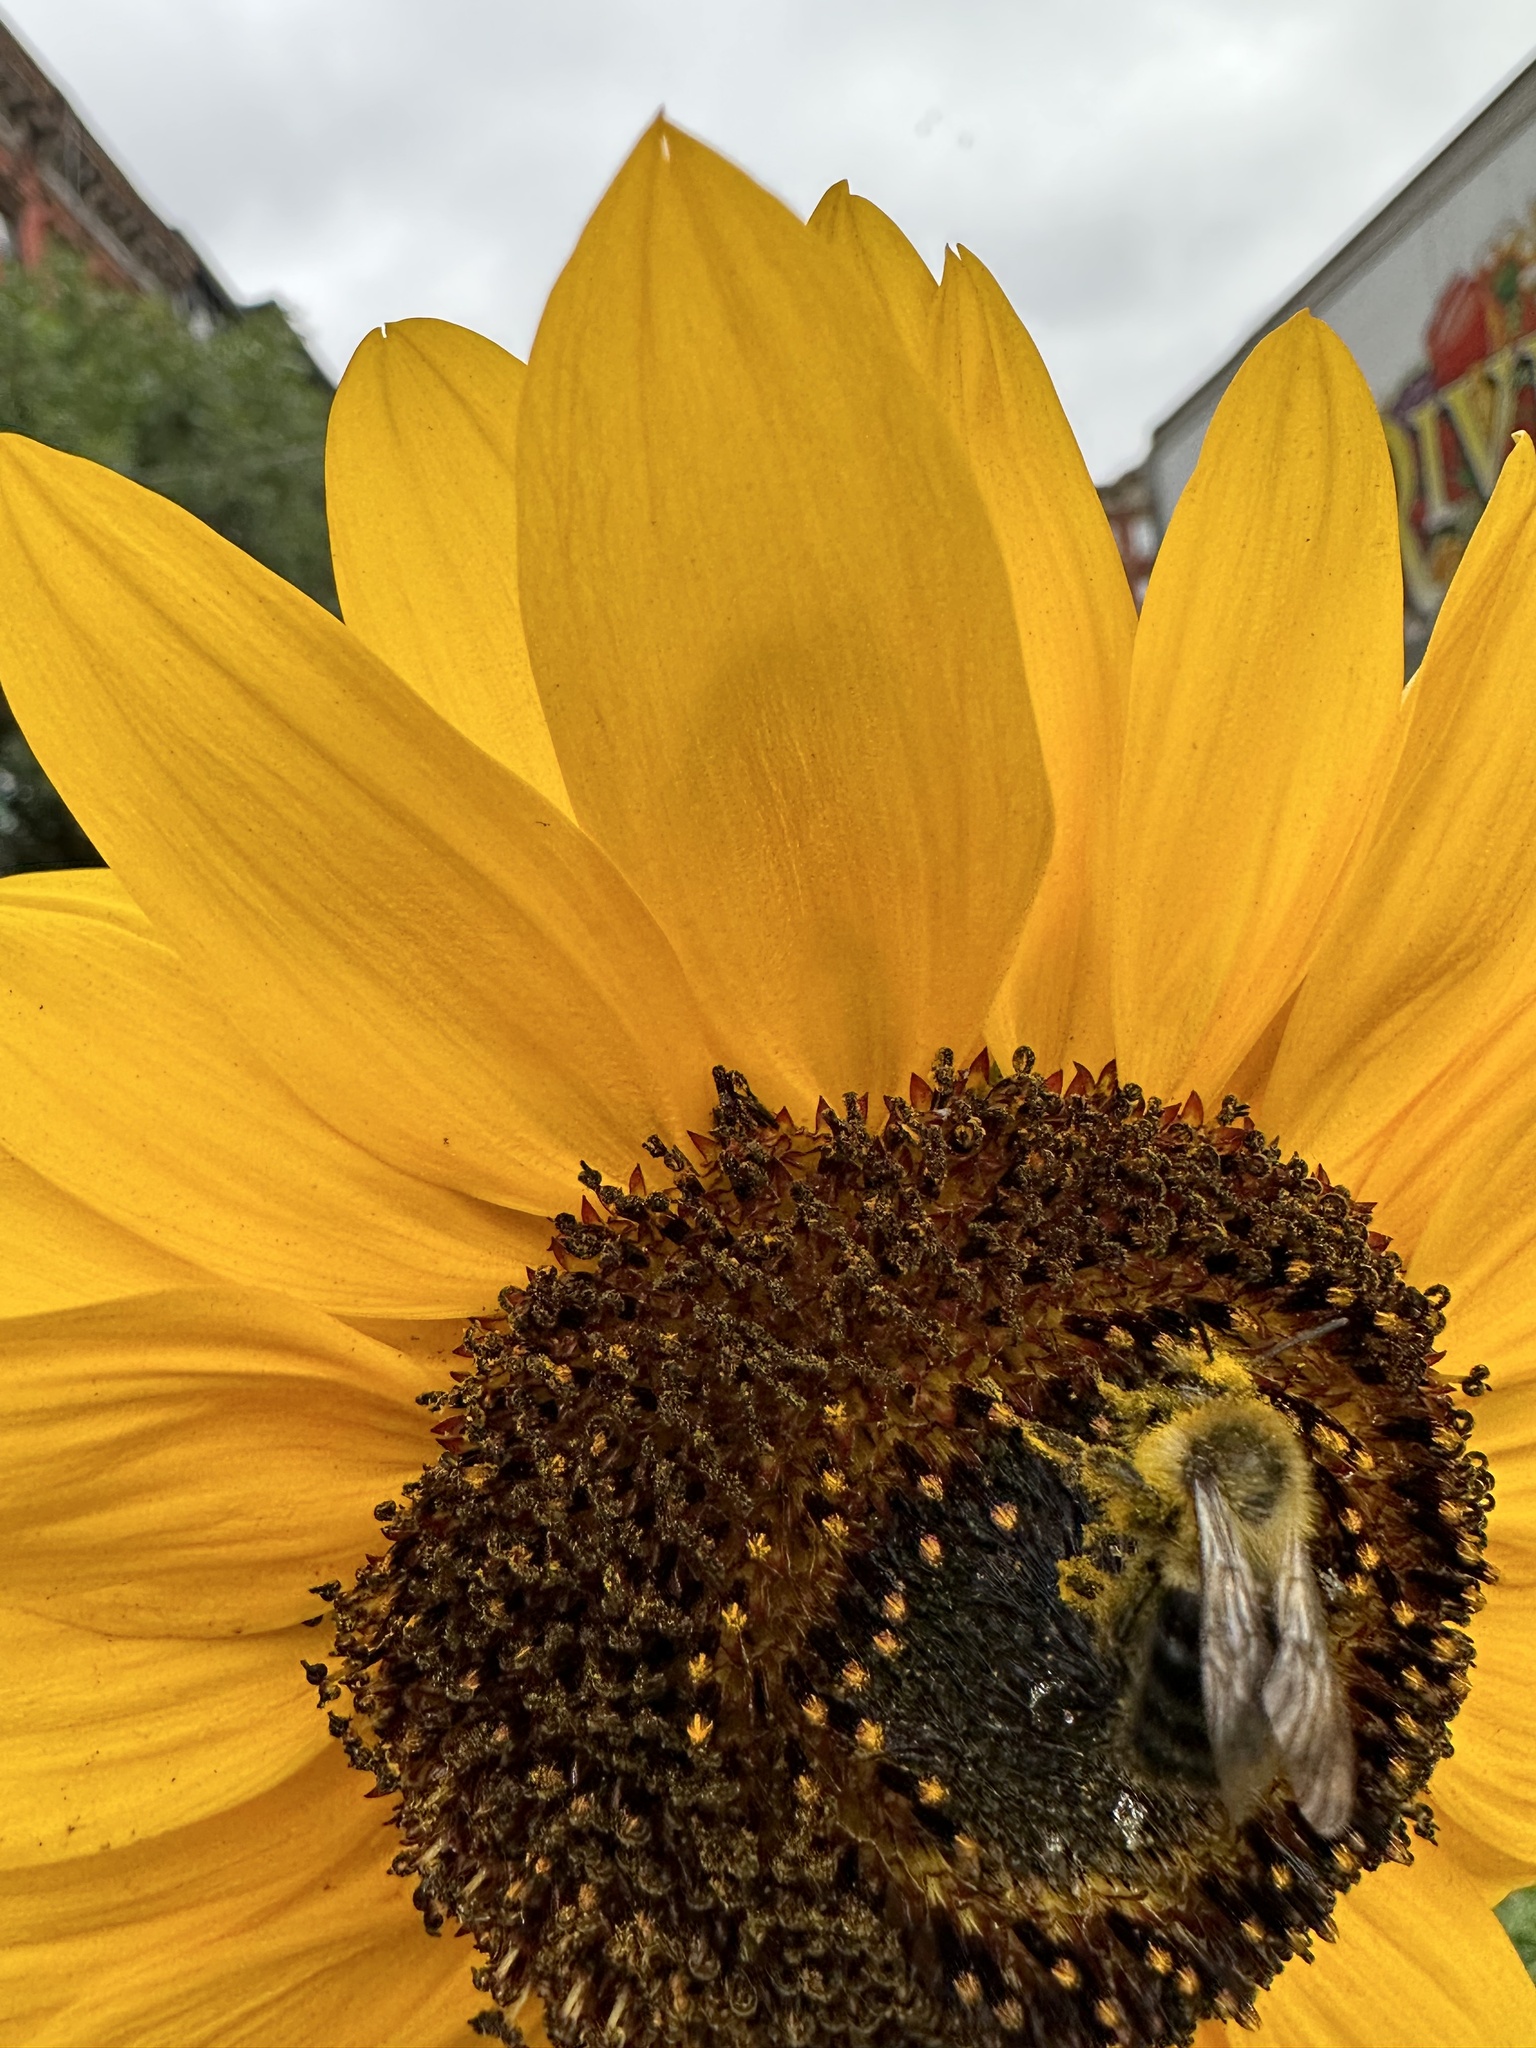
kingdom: Animalia
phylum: Arthropoda
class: Insecta
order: Hymenoptera
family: Apidae
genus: Bombus
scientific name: Bombus impatiens
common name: Common eastern bumble bee
